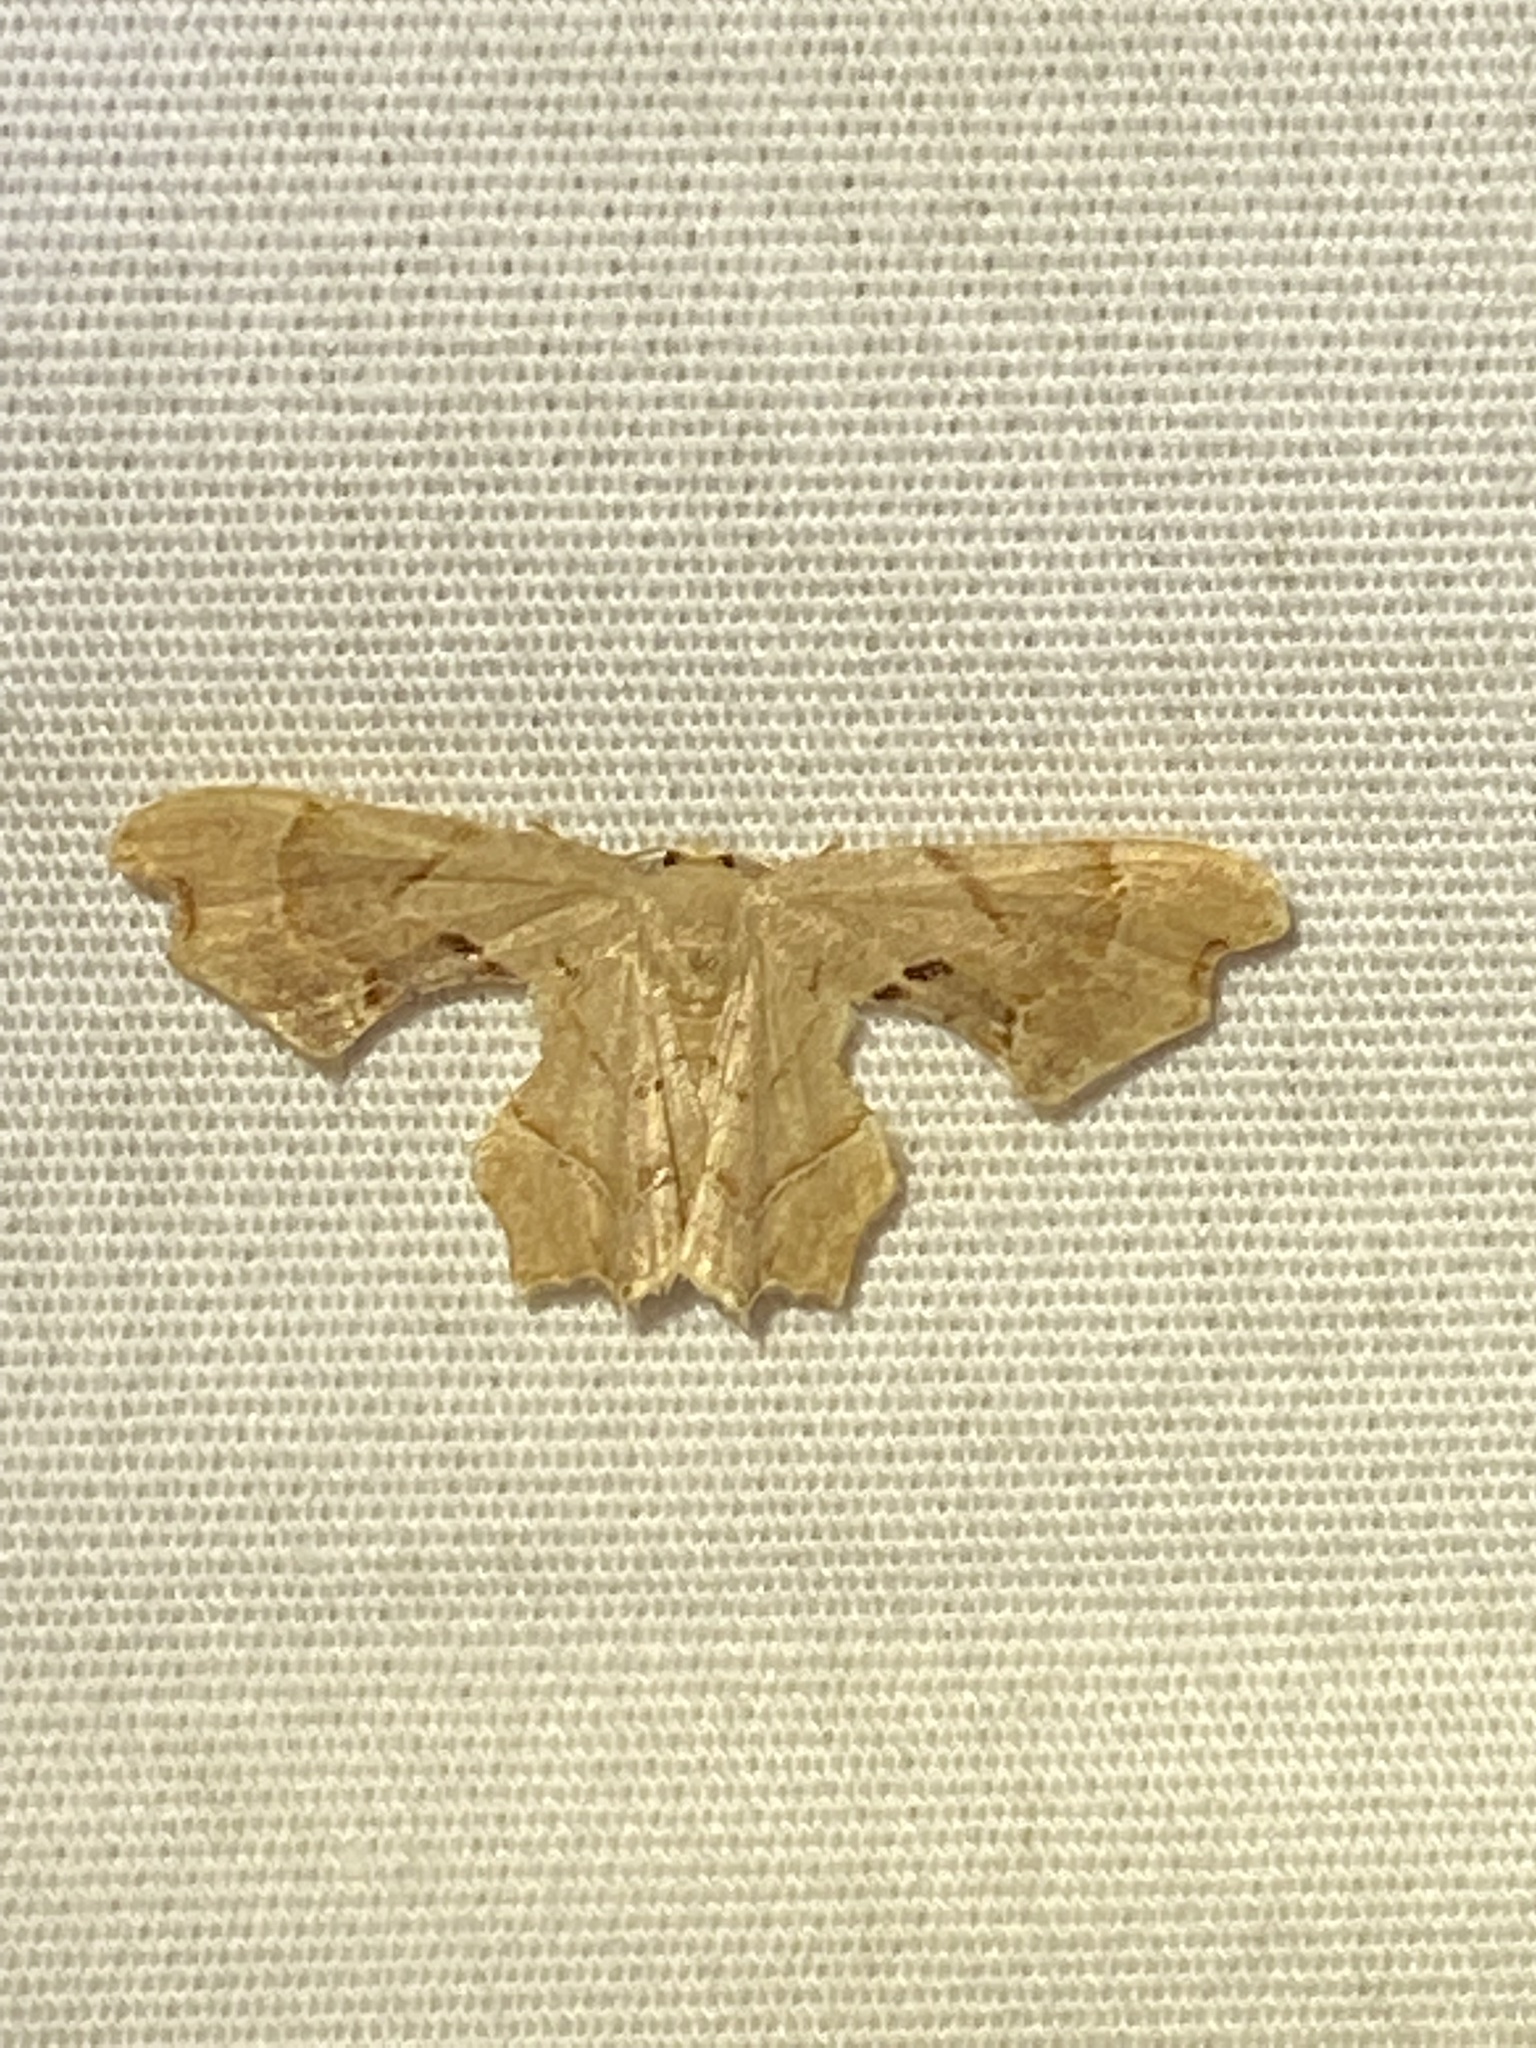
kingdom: Animalia
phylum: Arthropoda
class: Insecta
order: Lepidoptera
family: Uraniidae
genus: Epiplema
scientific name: Epiplema Calledapteryx dryopterata
